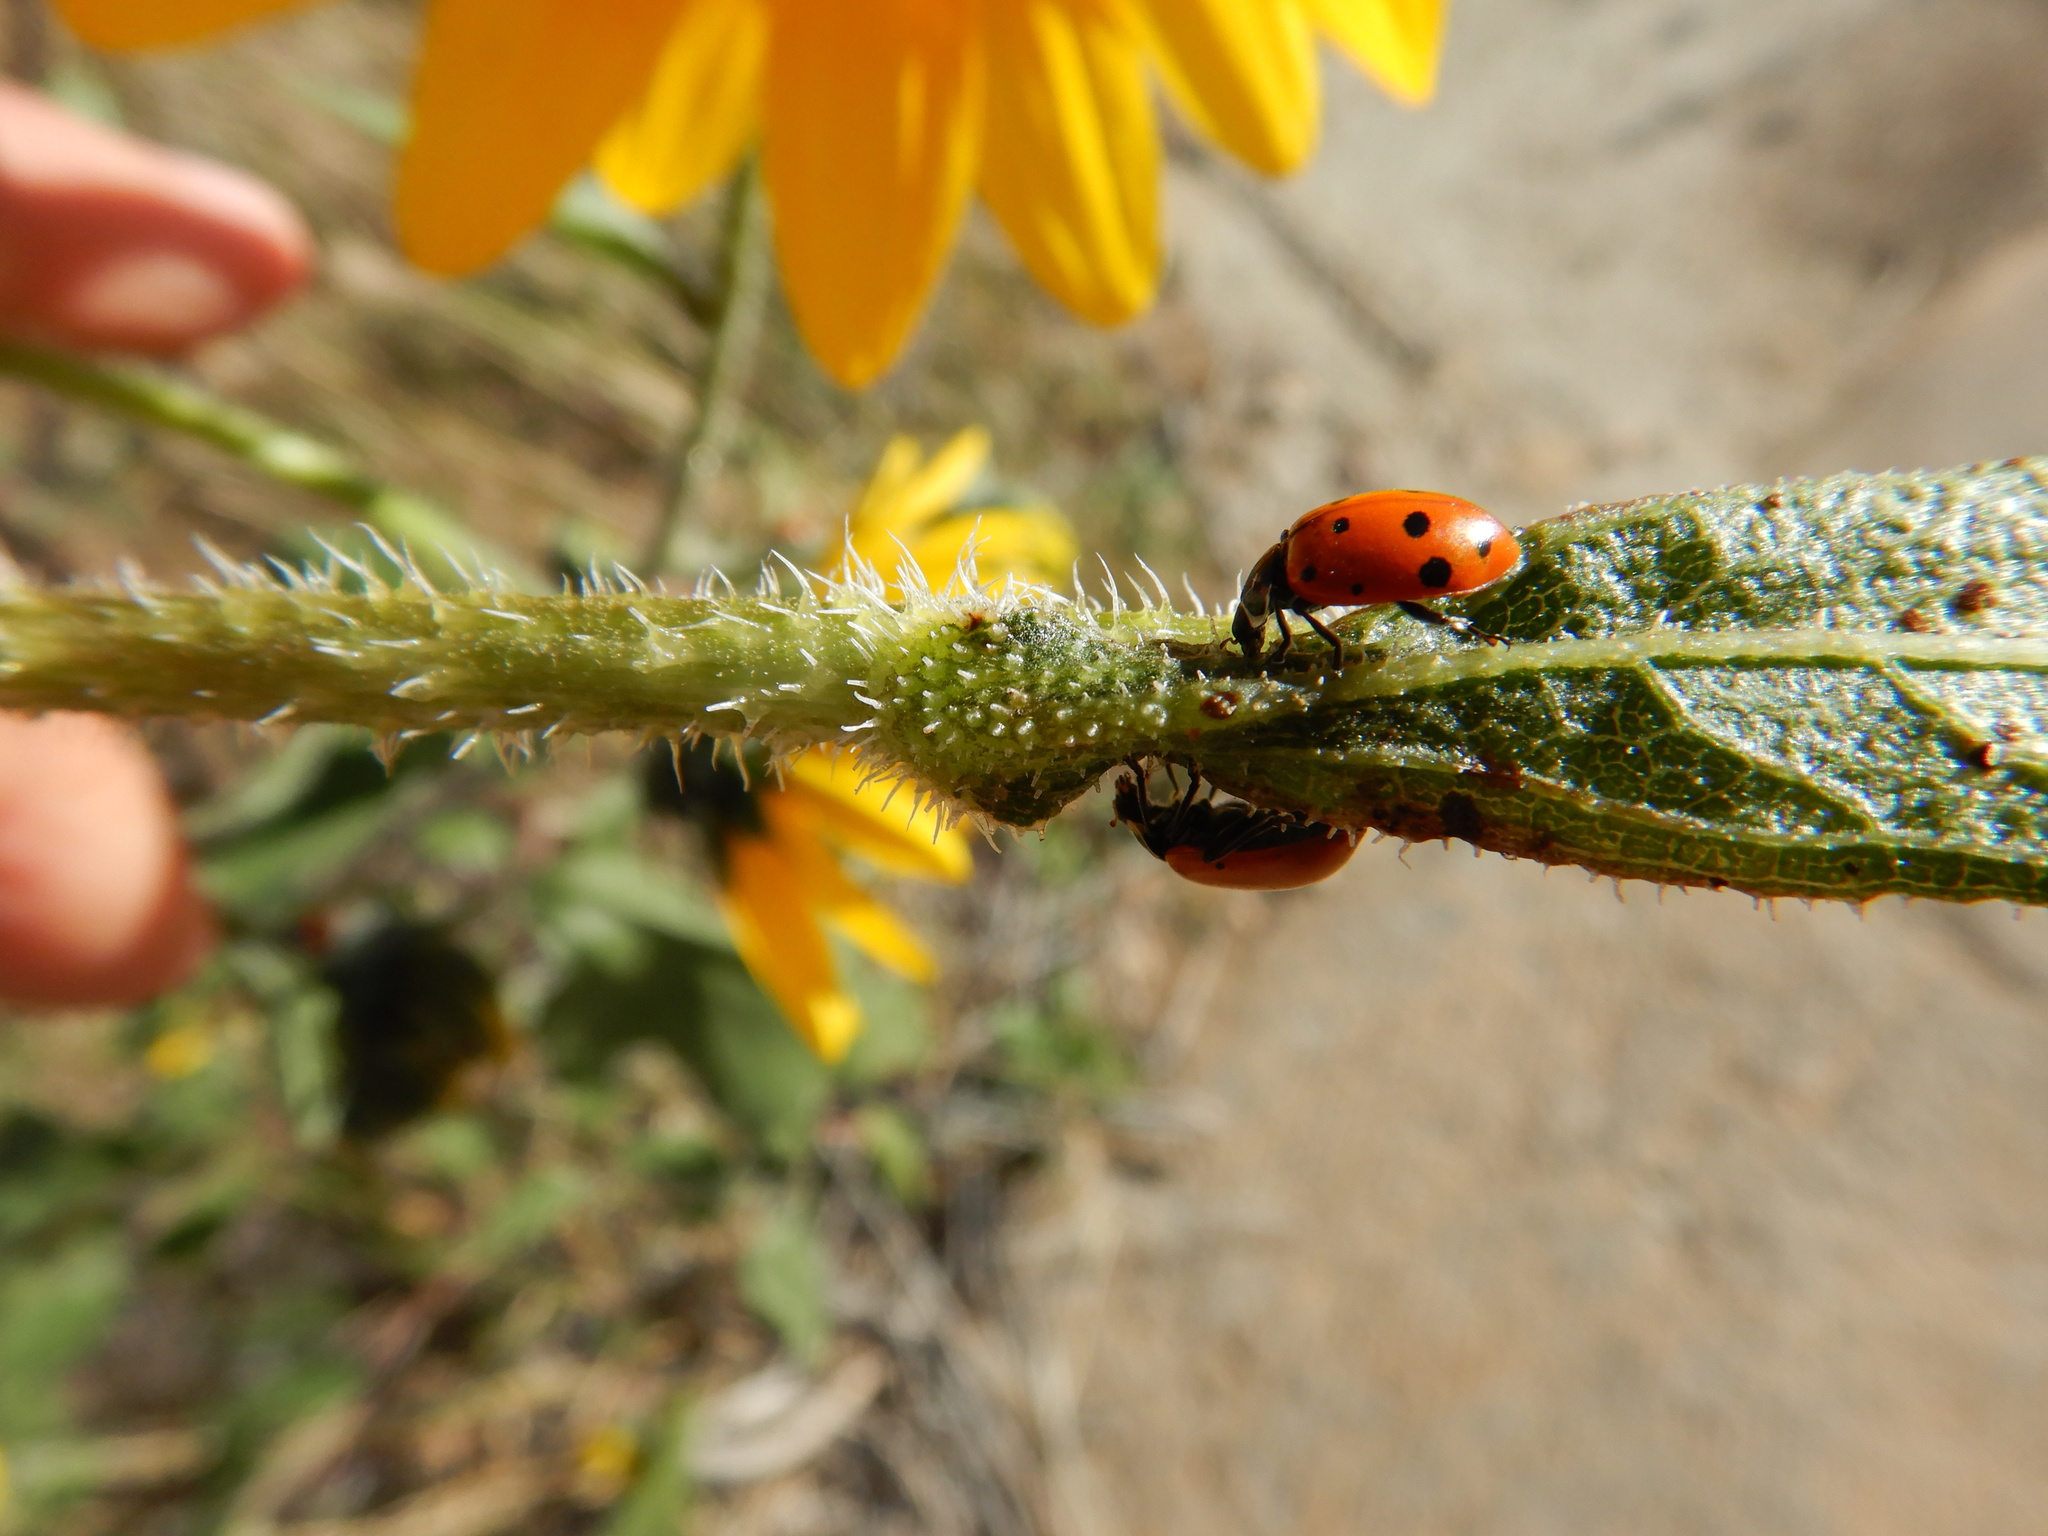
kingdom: Animalia
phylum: Arthropoda
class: Insecta
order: Coleoptera
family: Coccinellidae
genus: Hippodamia
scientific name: Hippodamia convergens
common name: Convergent lady beetle
